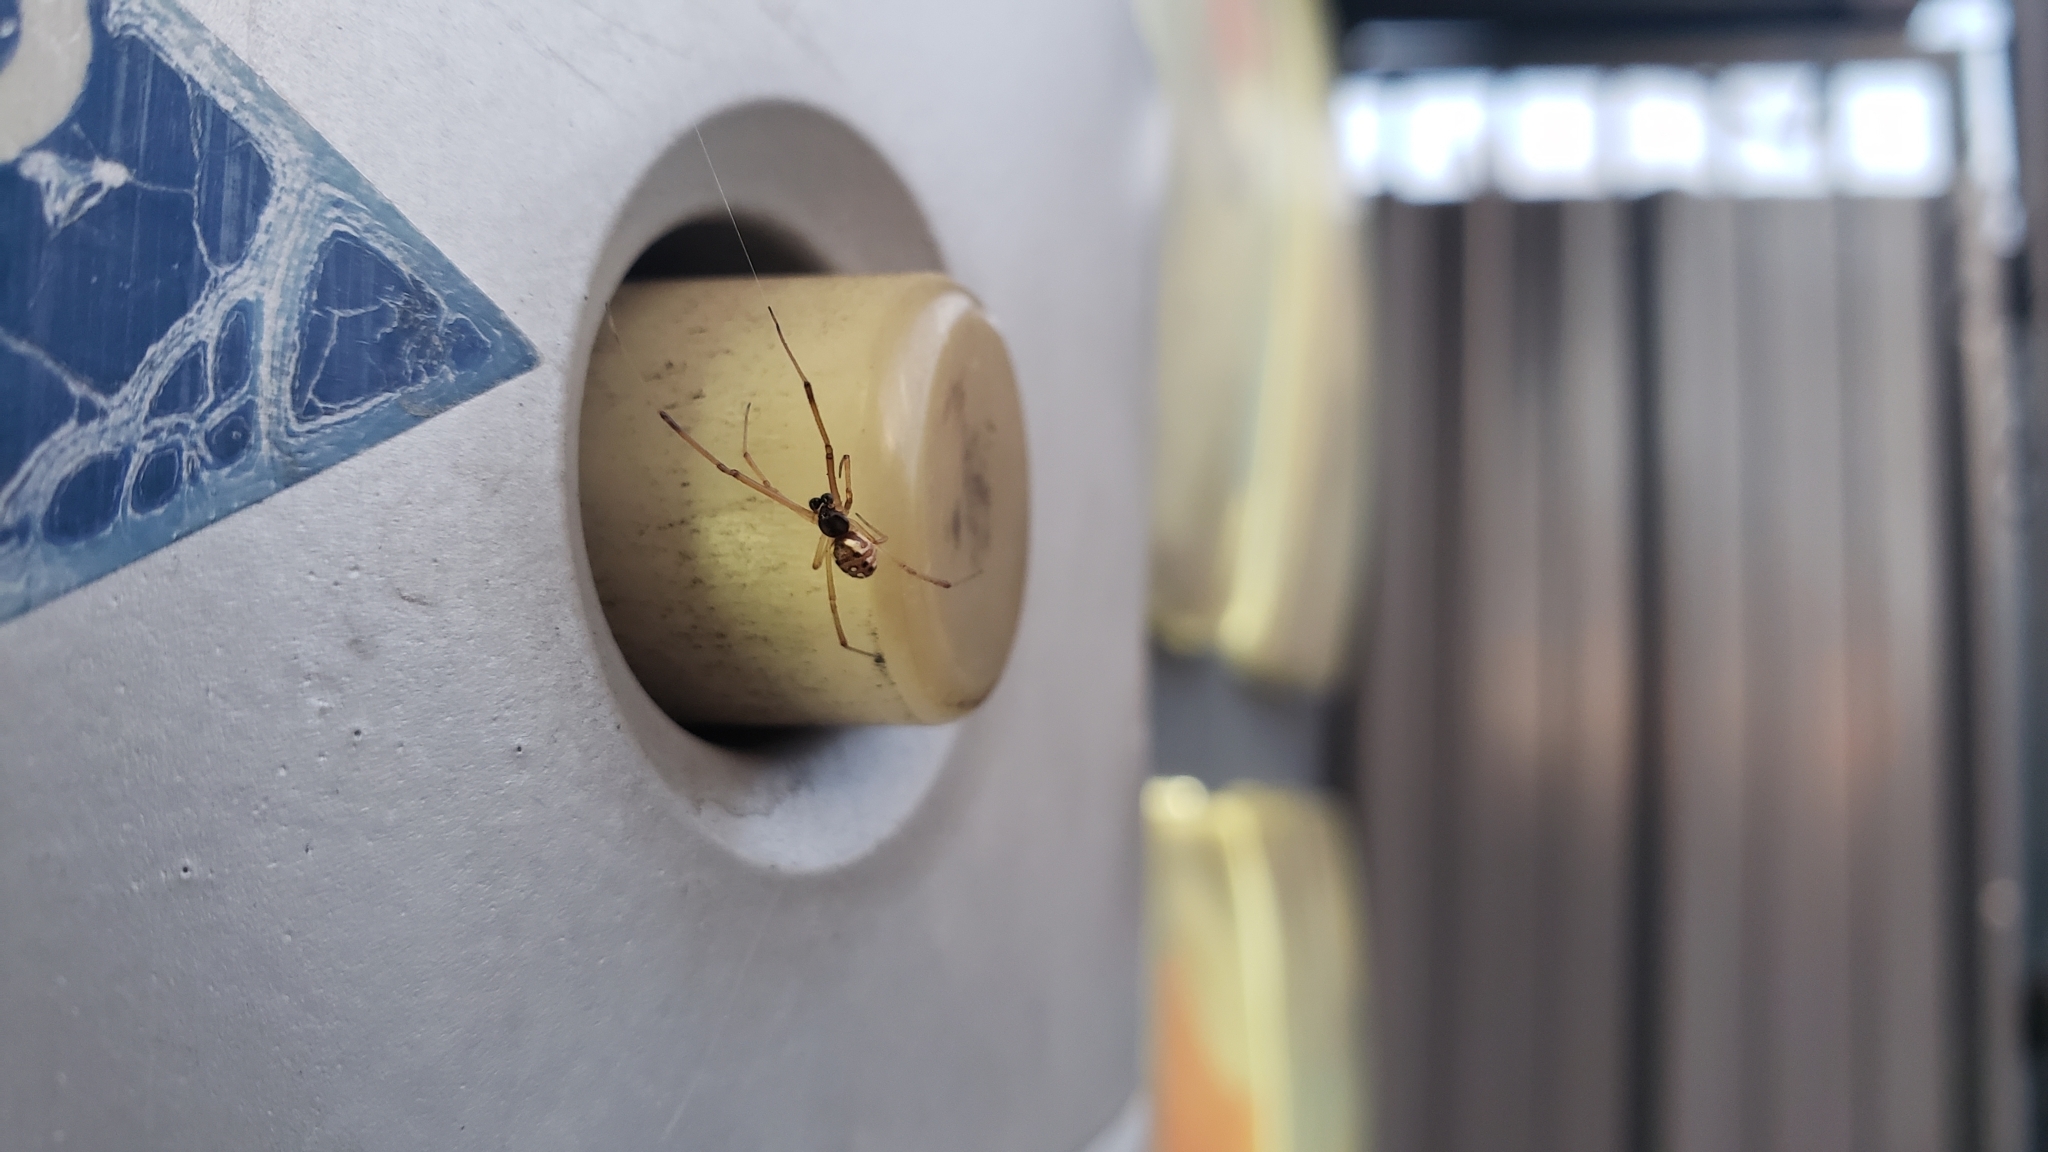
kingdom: Animalia
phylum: Arthropoda
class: Arachnida
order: Araneae
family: Theridiidae
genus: Latrodectus
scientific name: Latrodectus geometricus
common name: Brown widow spider
